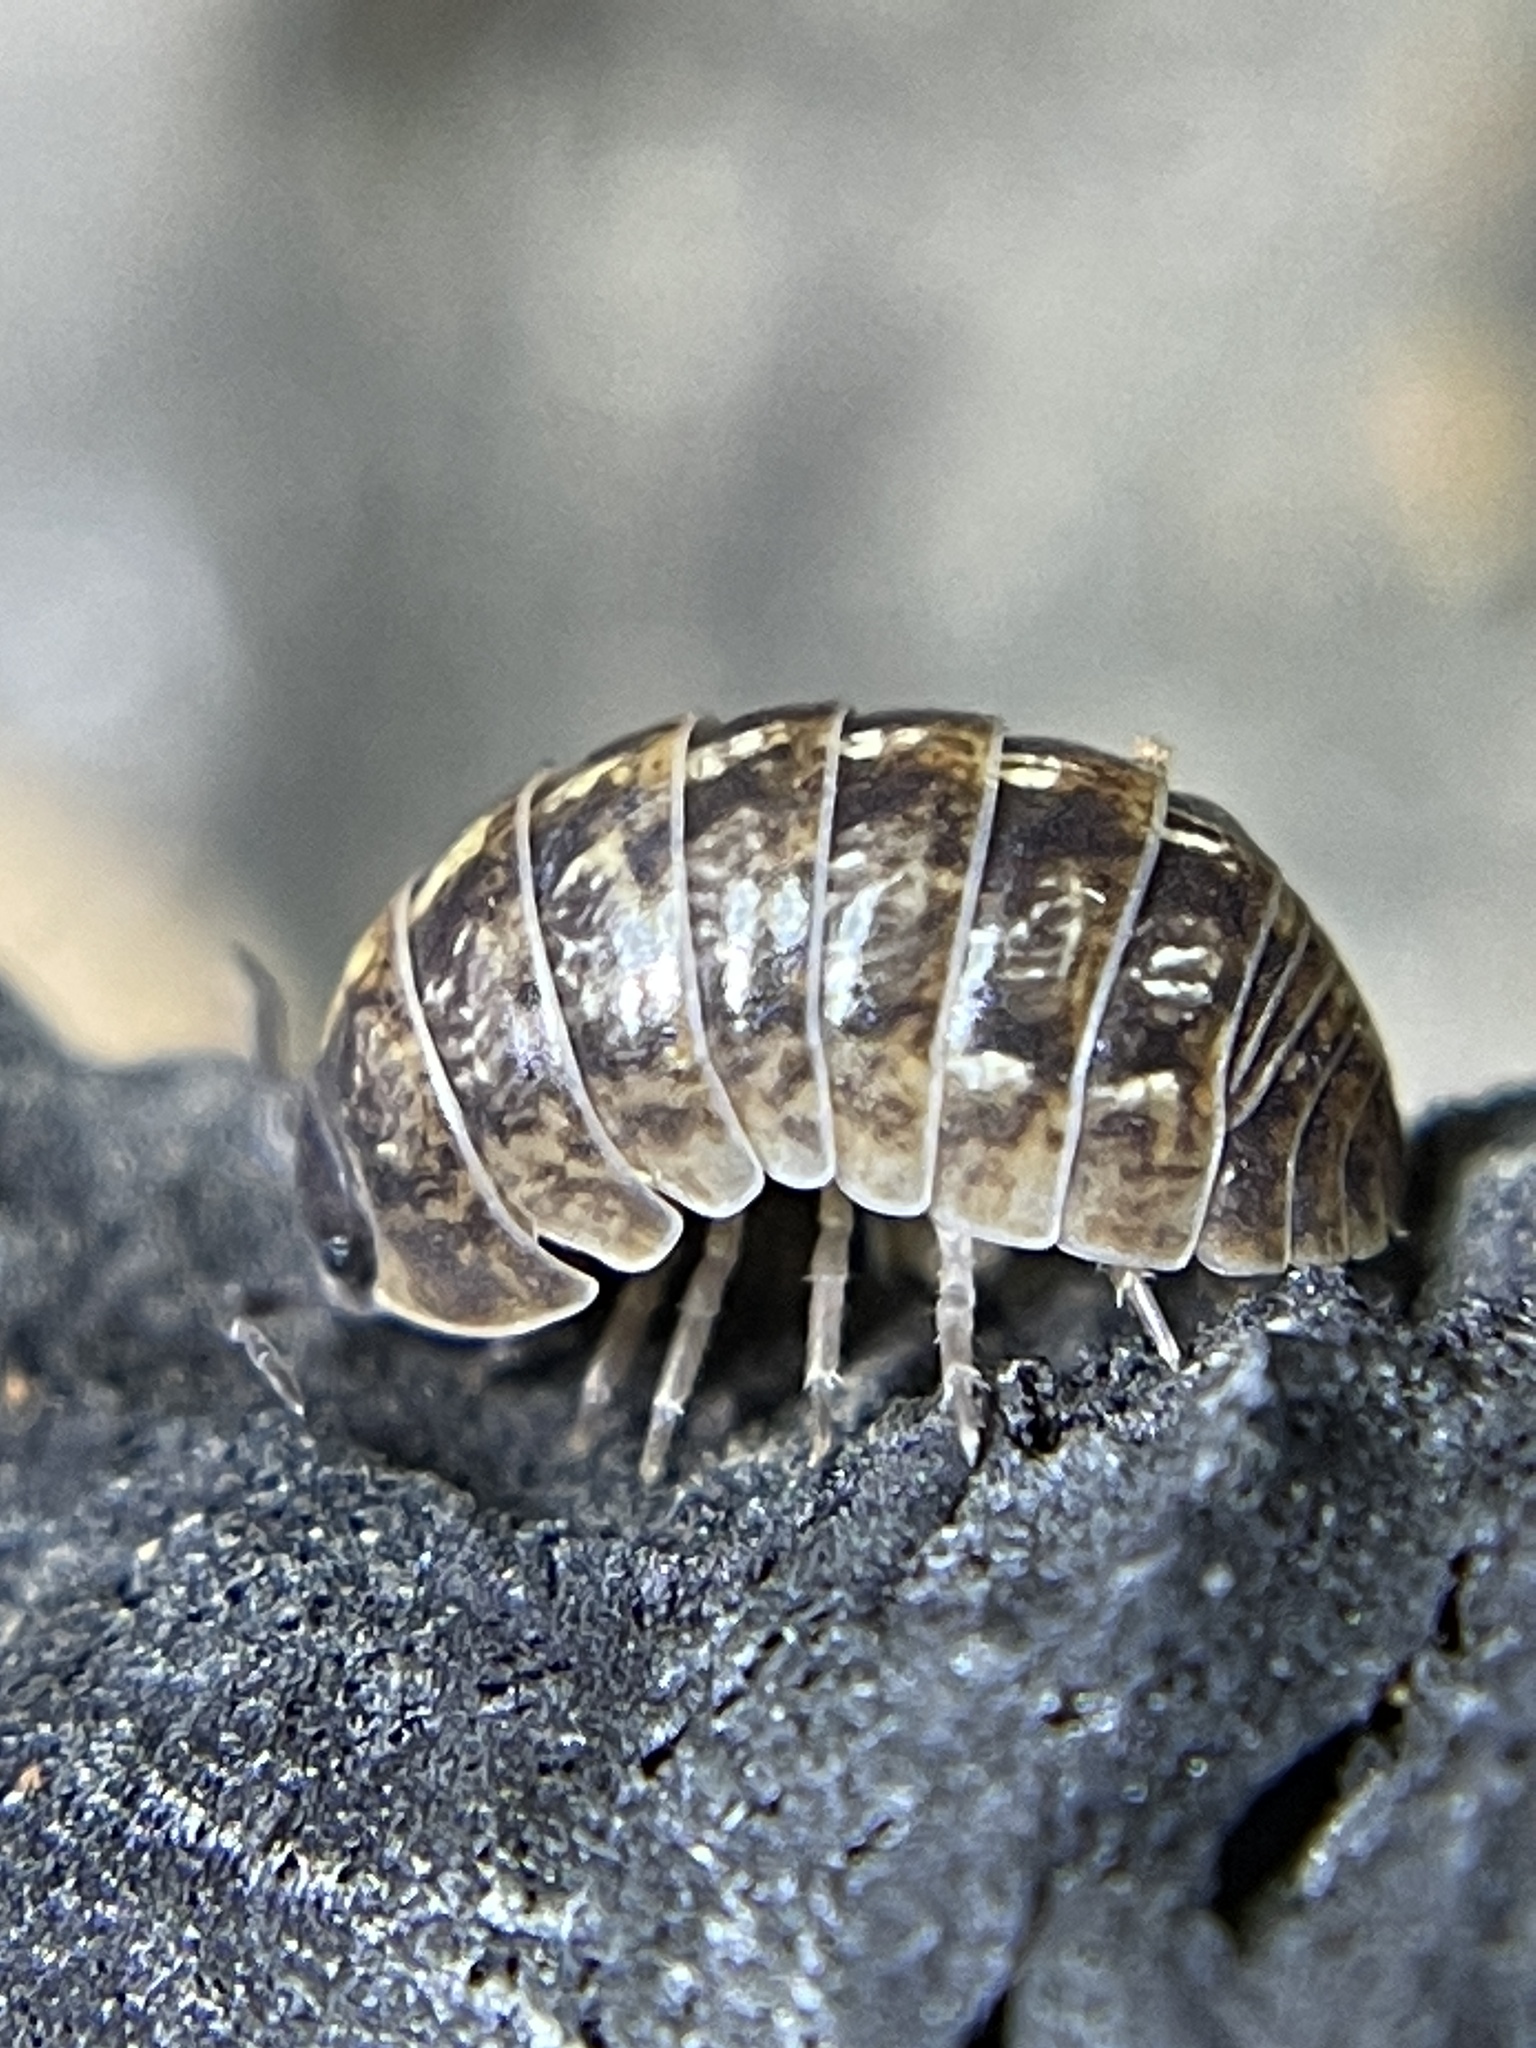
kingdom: Animalia
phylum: Arthropoda
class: Malacostraca
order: Isopoda
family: Armadillidiidae
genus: Armadillidium
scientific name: Armadillidium vulgare
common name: Common pill woodlouse
